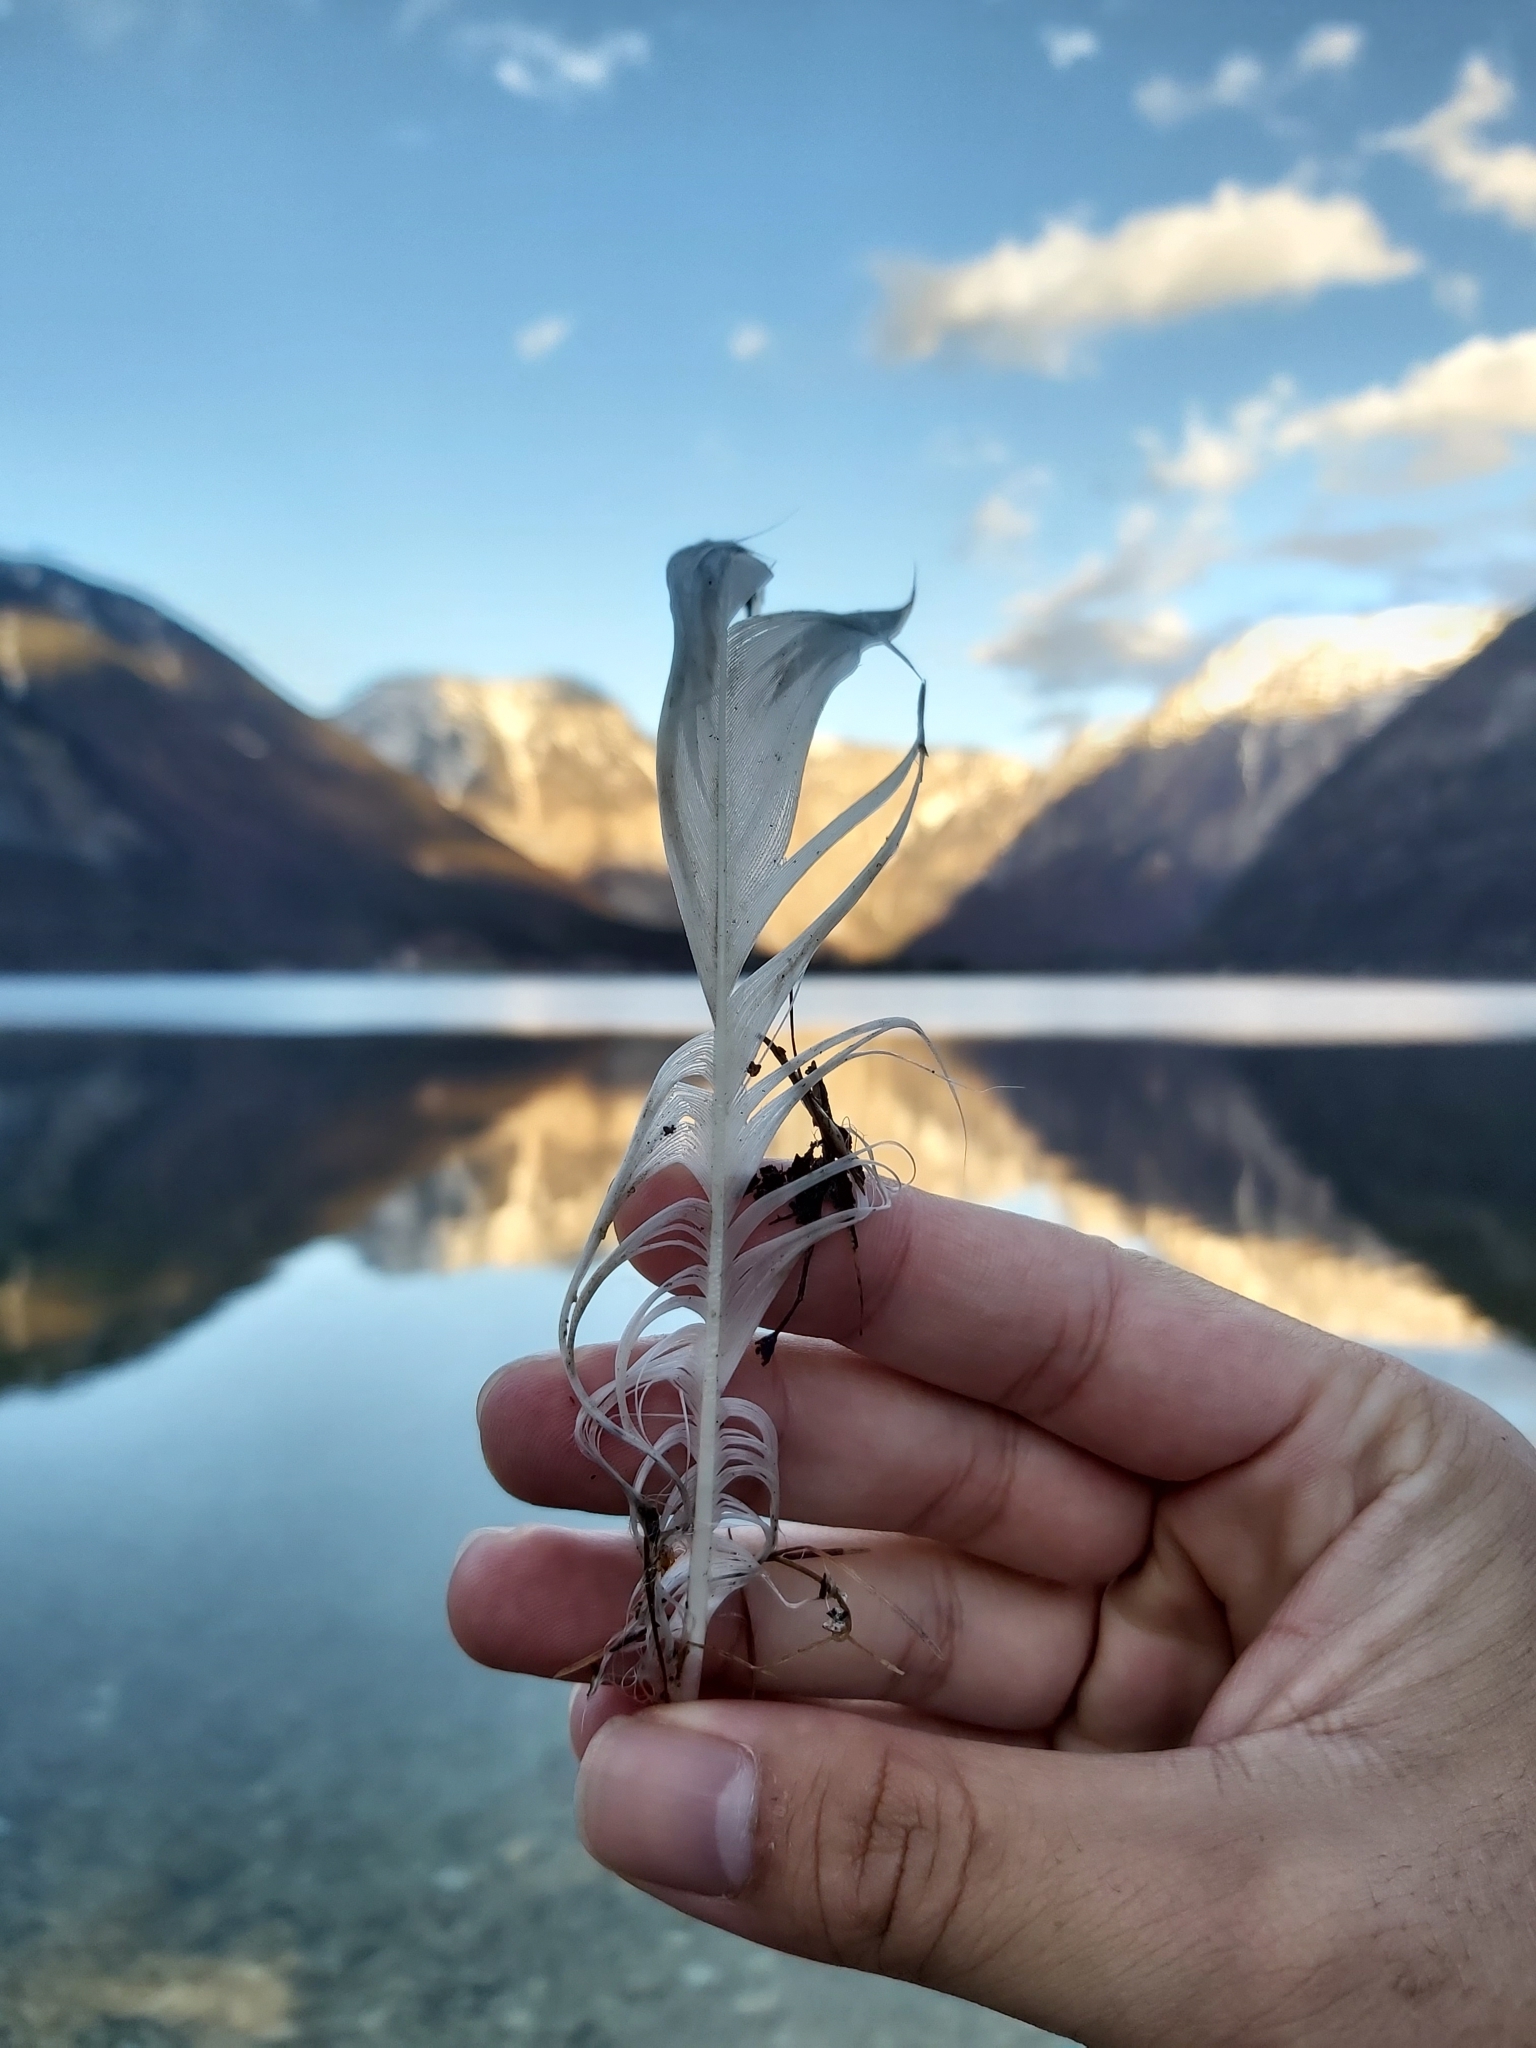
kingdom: Animalia
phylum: Chordata
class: Aves
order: Anseriformes
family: Anatidae
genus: Cygnus
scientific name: Cygnus olor
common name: Mute swan
